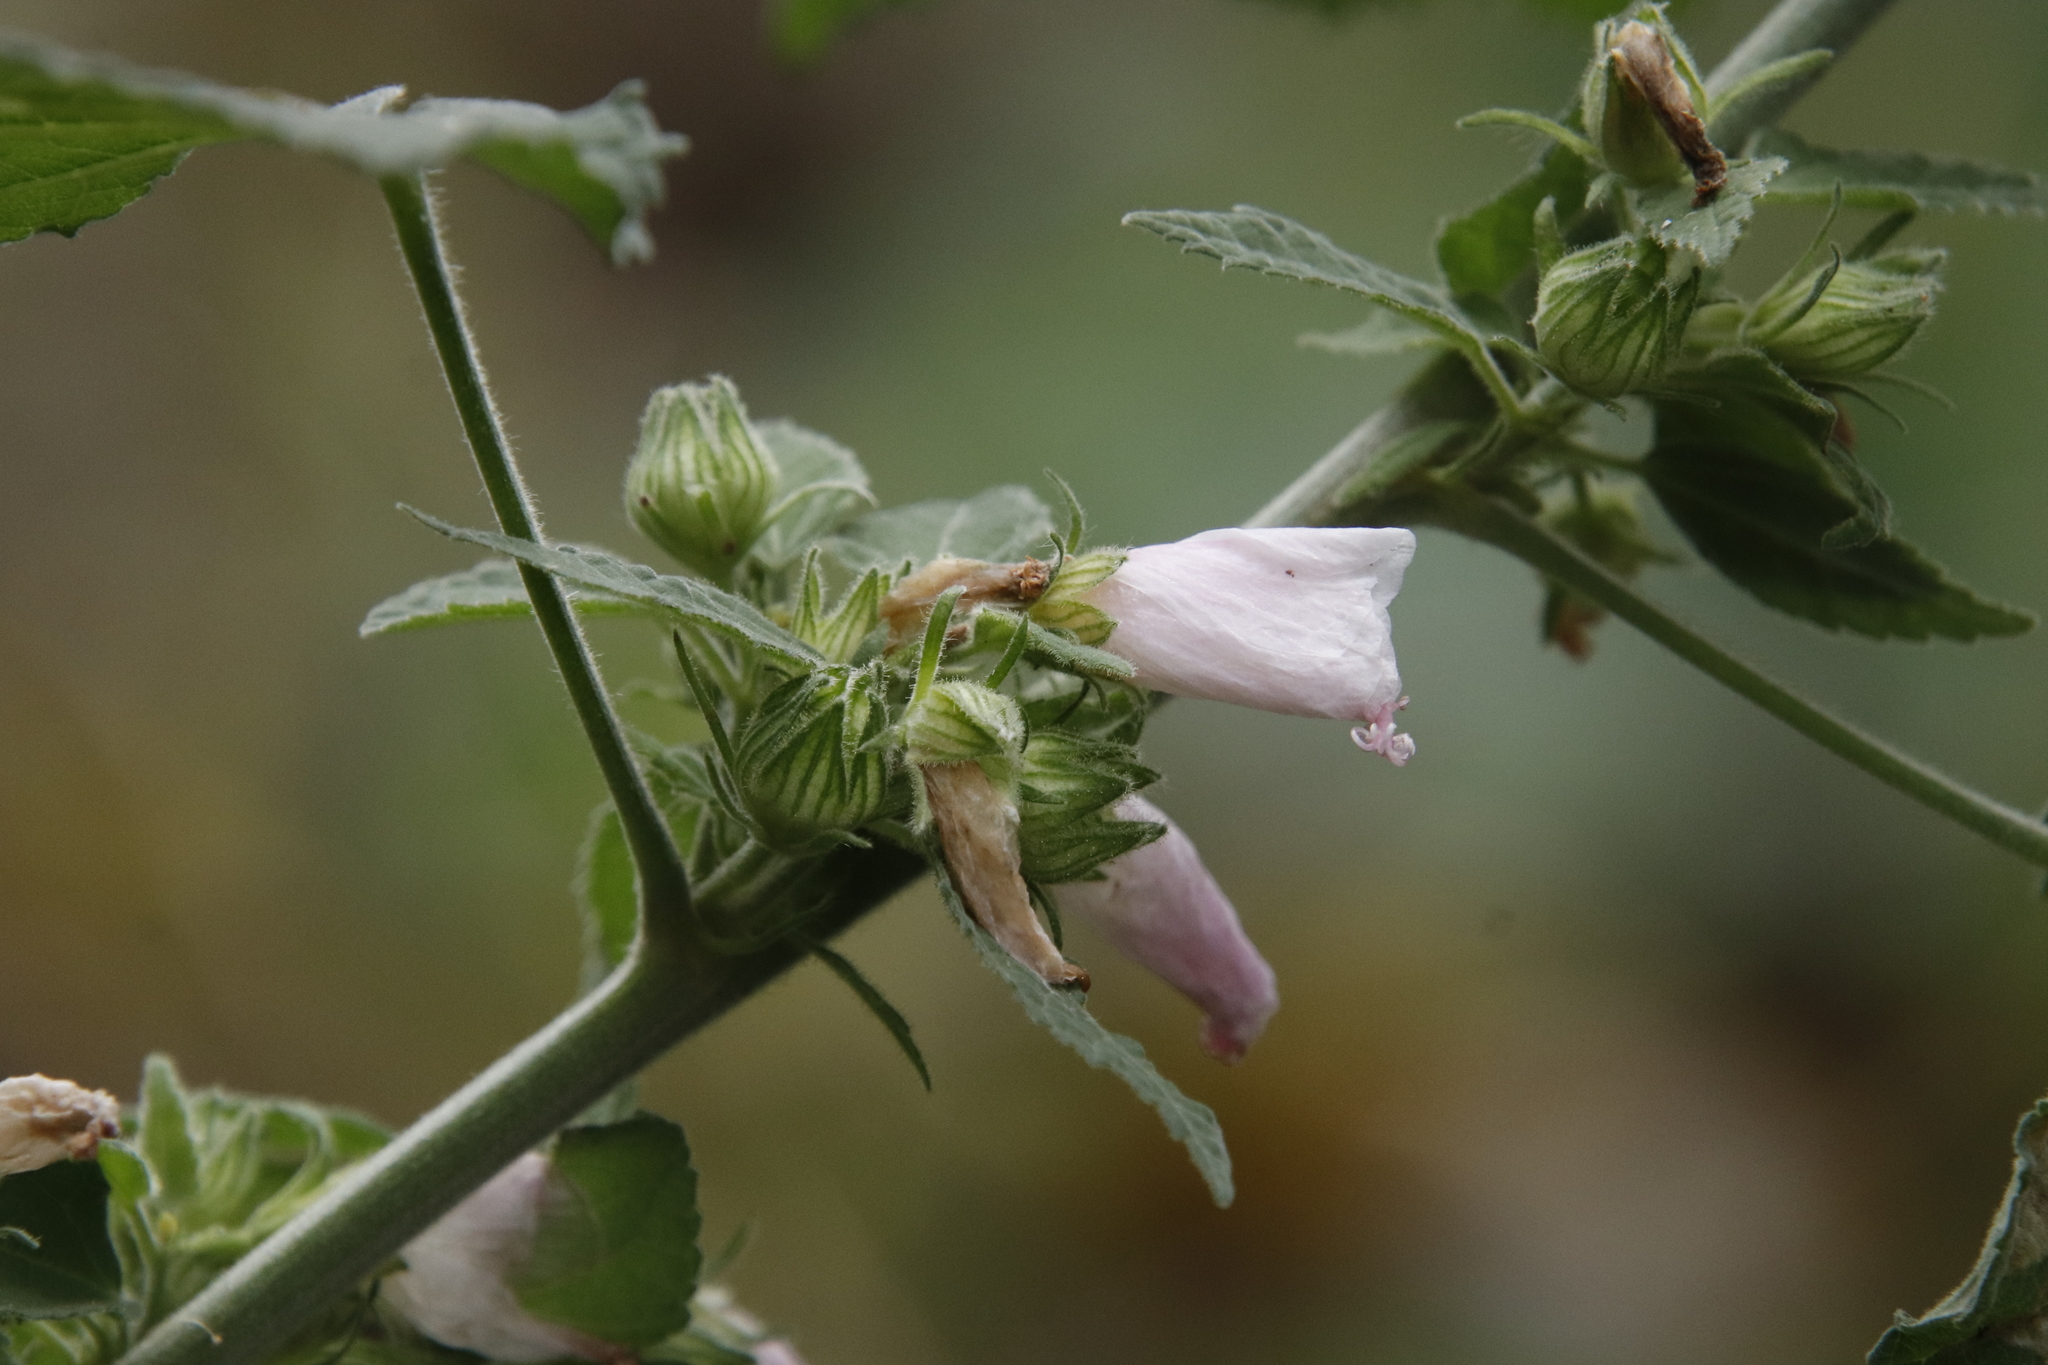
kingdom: Plantae
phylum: Tracheophyta
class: Magnoliopsida
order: Malvales
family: Malvaceae
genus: Pavonia
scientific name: Pavonia columella
